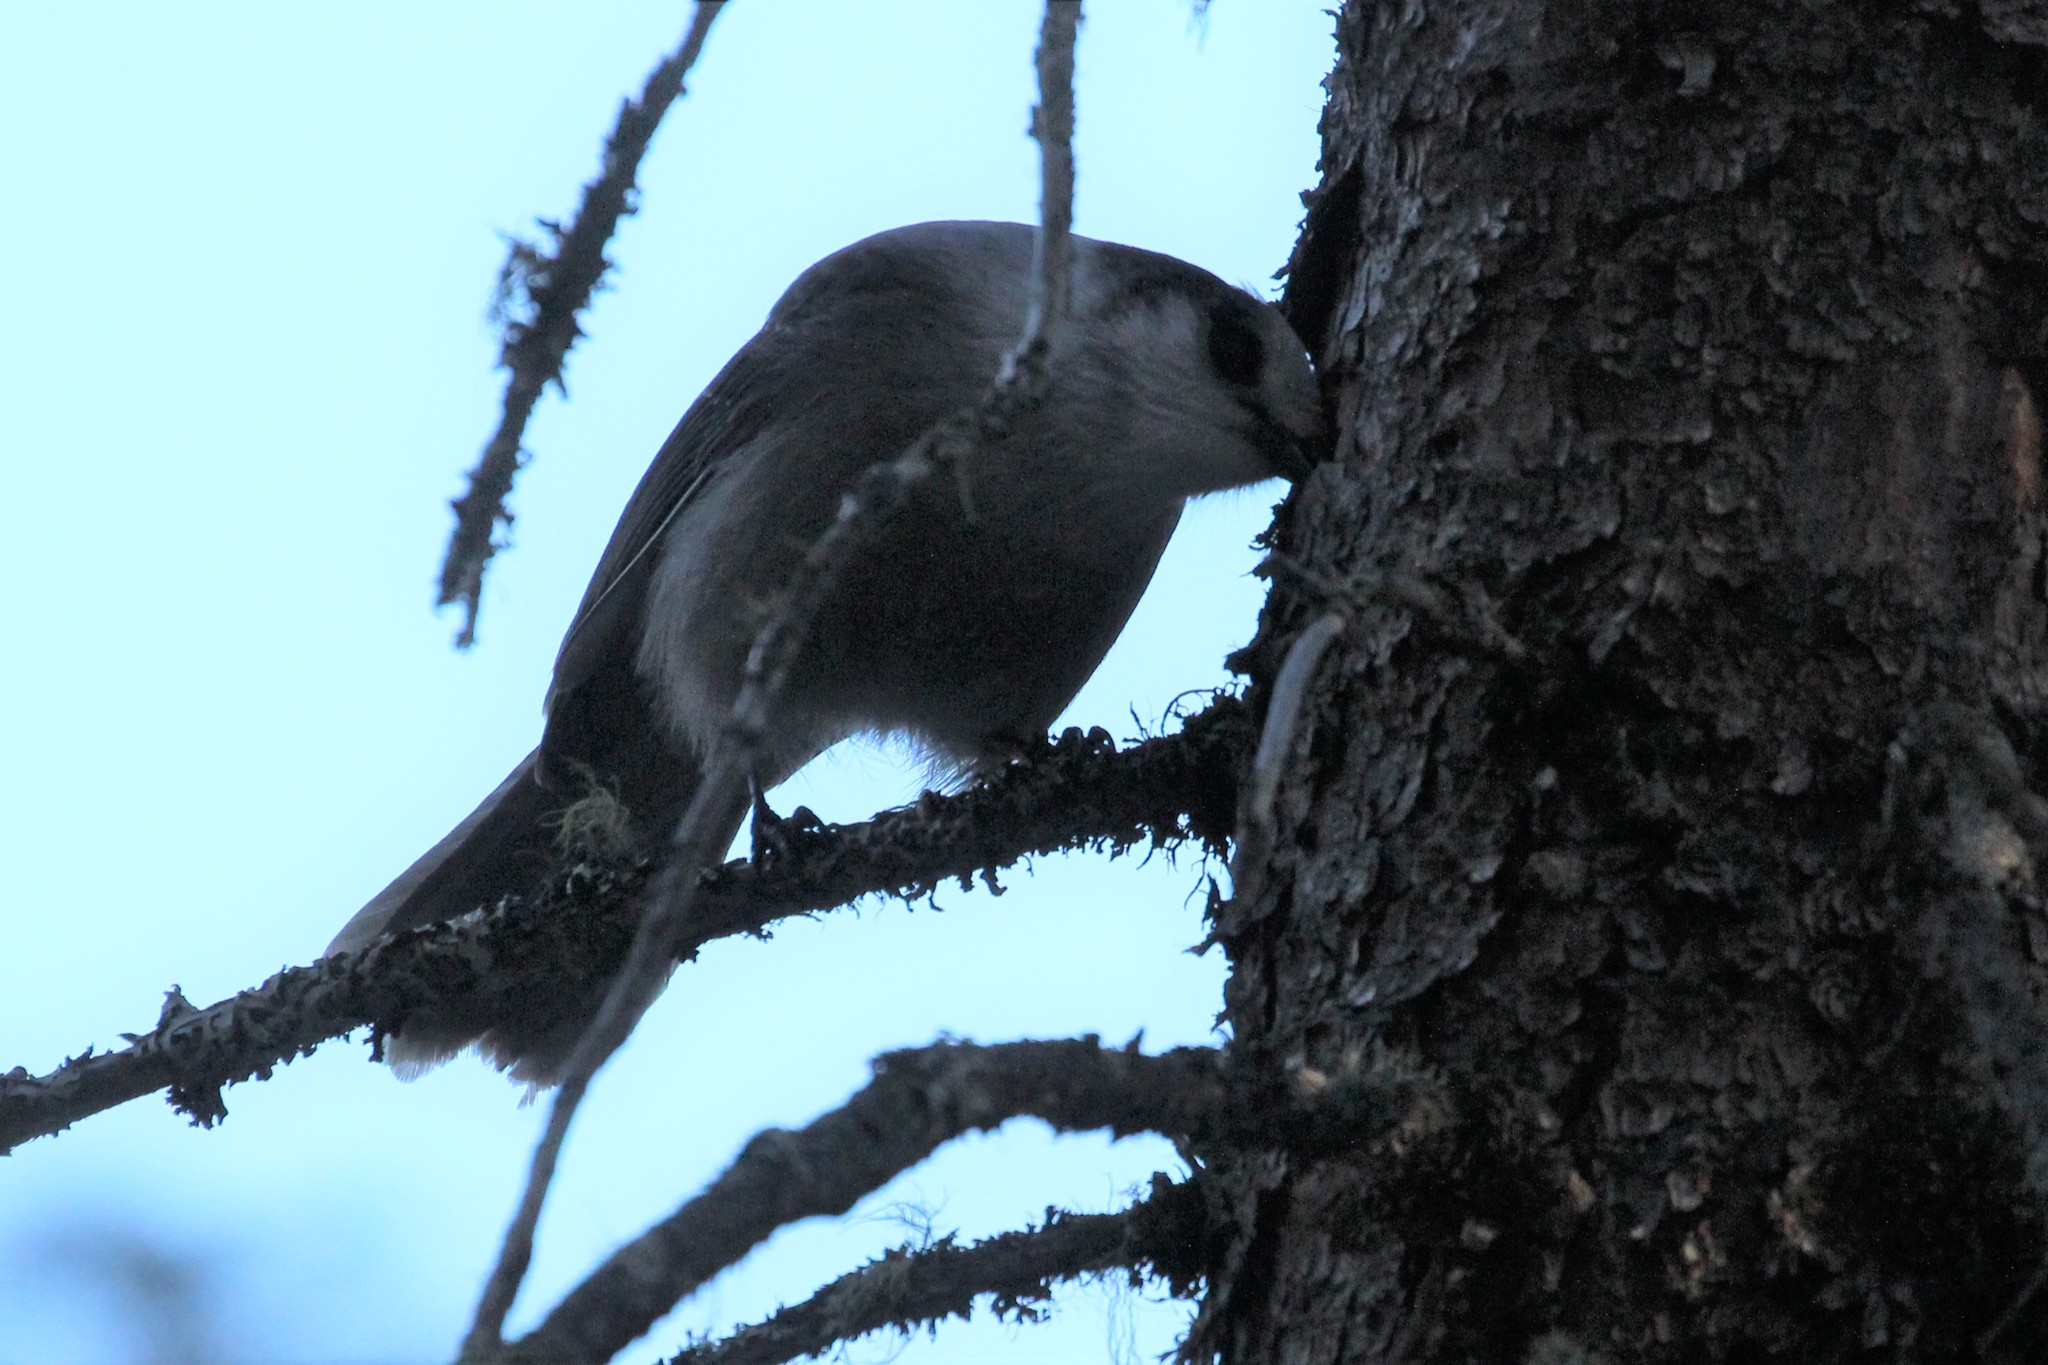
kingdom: Animalia
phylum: Chordata
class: Aves
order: Passeriformes
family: Corvidae
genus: Perisoreus
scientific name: Perisoreus canadensis
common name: Gray jay
